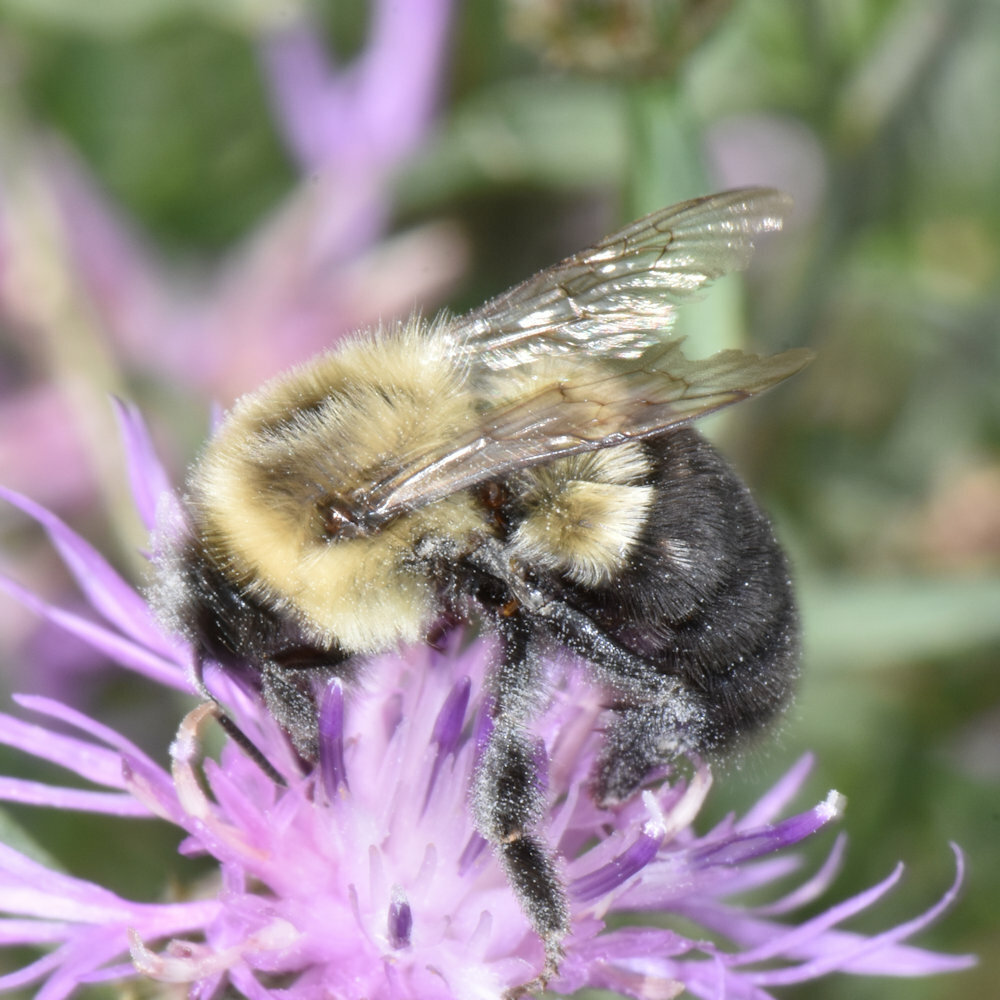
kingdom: Animalia
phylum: Arthropoda
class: Insecta
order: Hymenoptera
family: Apidae
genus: Bombus
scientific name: Bombus impatiens
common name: Common eastern bumble bee
